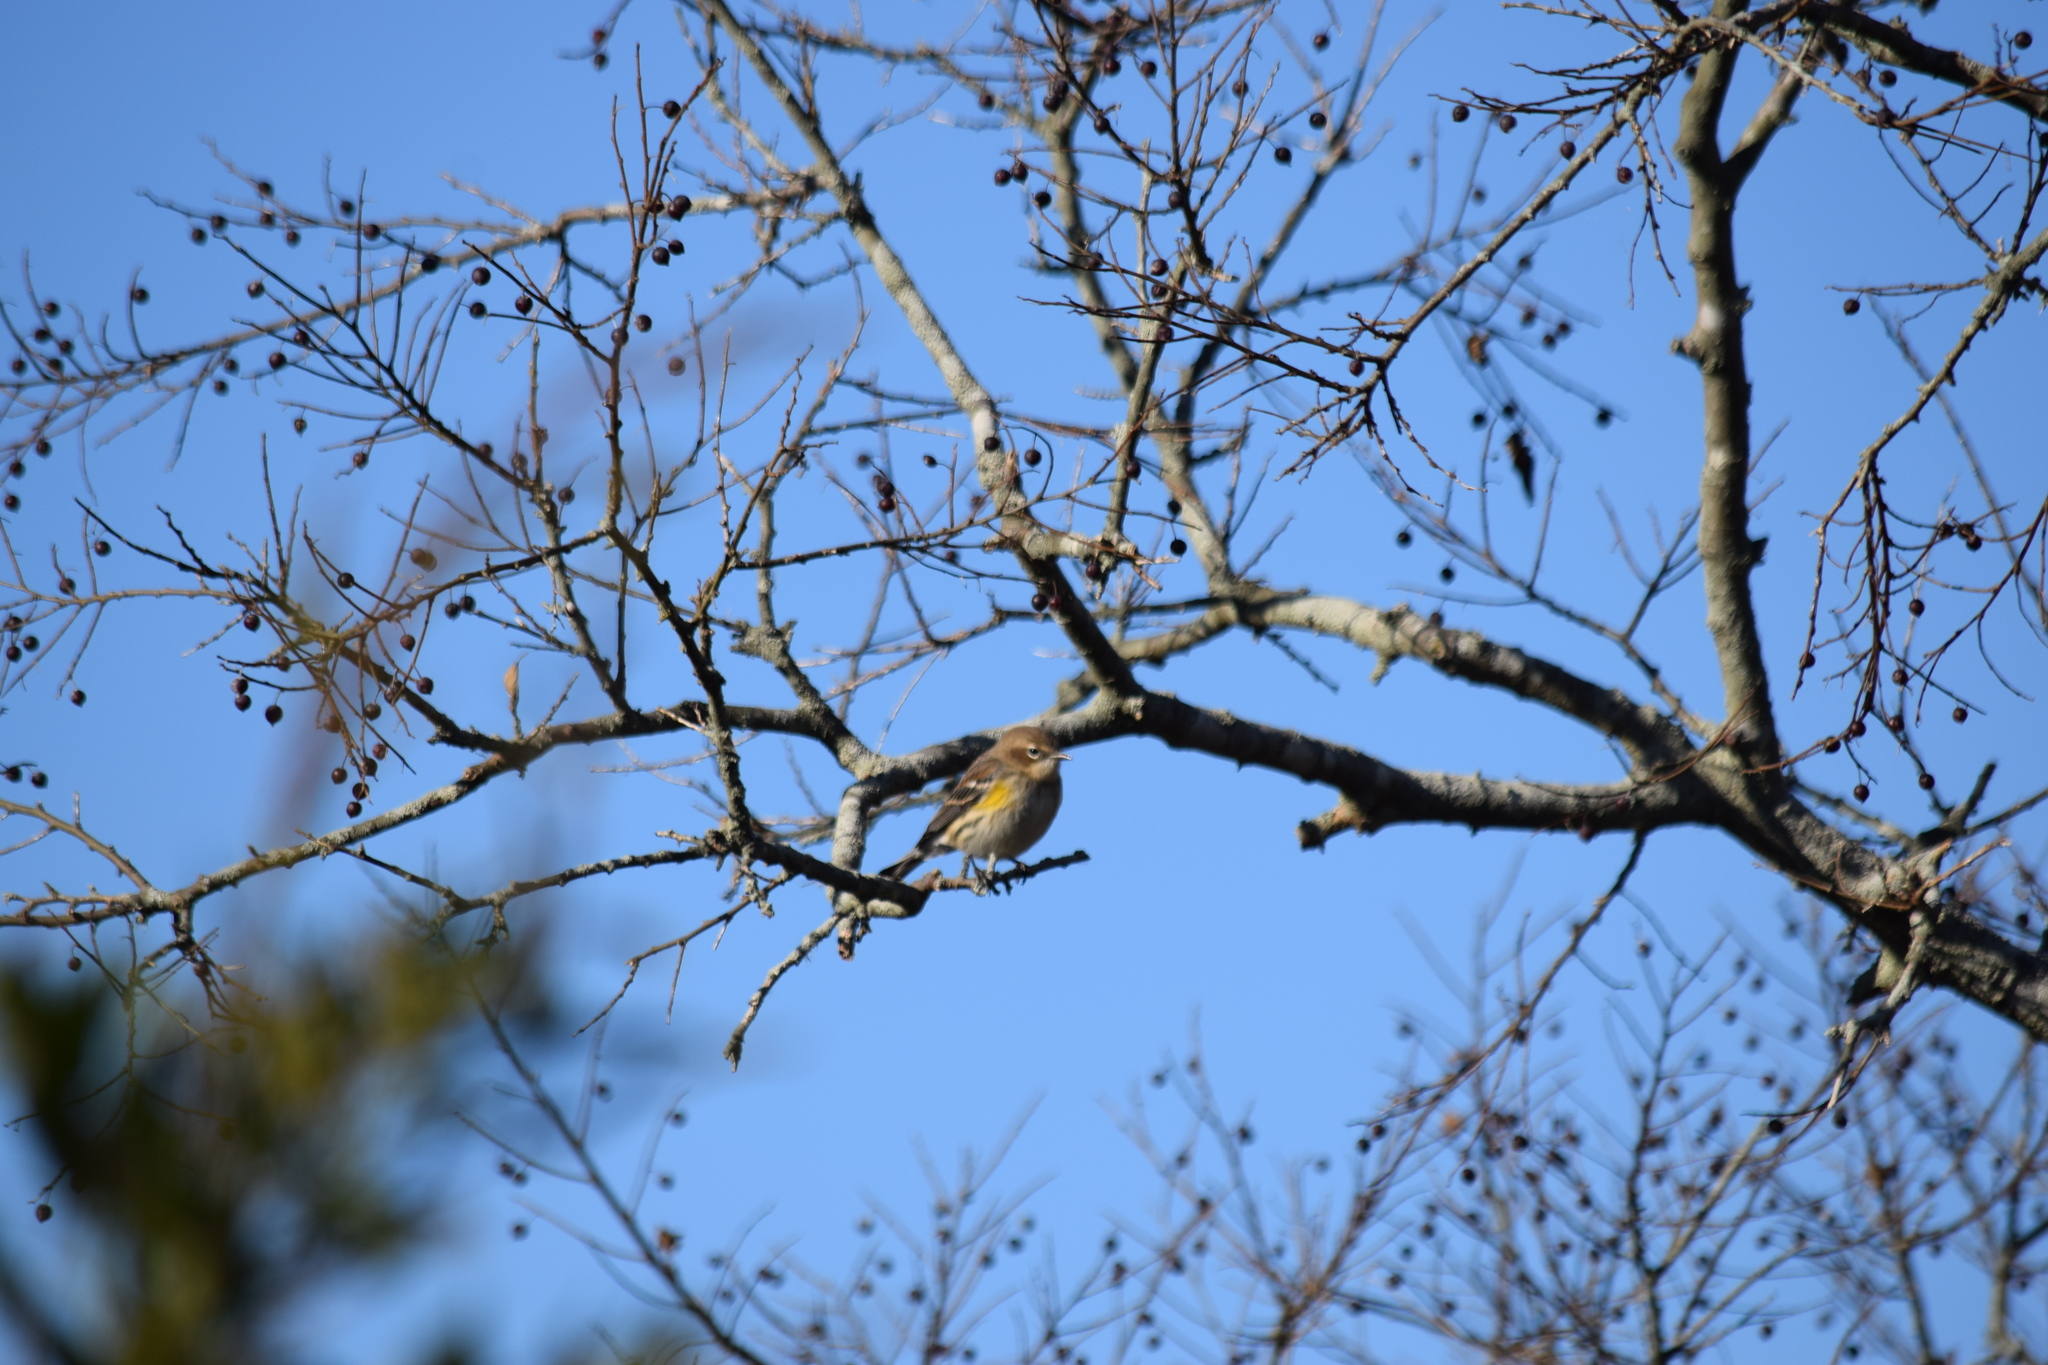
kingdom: Animalia
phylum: Chordata
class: Aves
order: Passeriformes
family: Parulidae
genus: Setophaga
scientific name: Setophaga coronata
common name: Myrtle warbler
